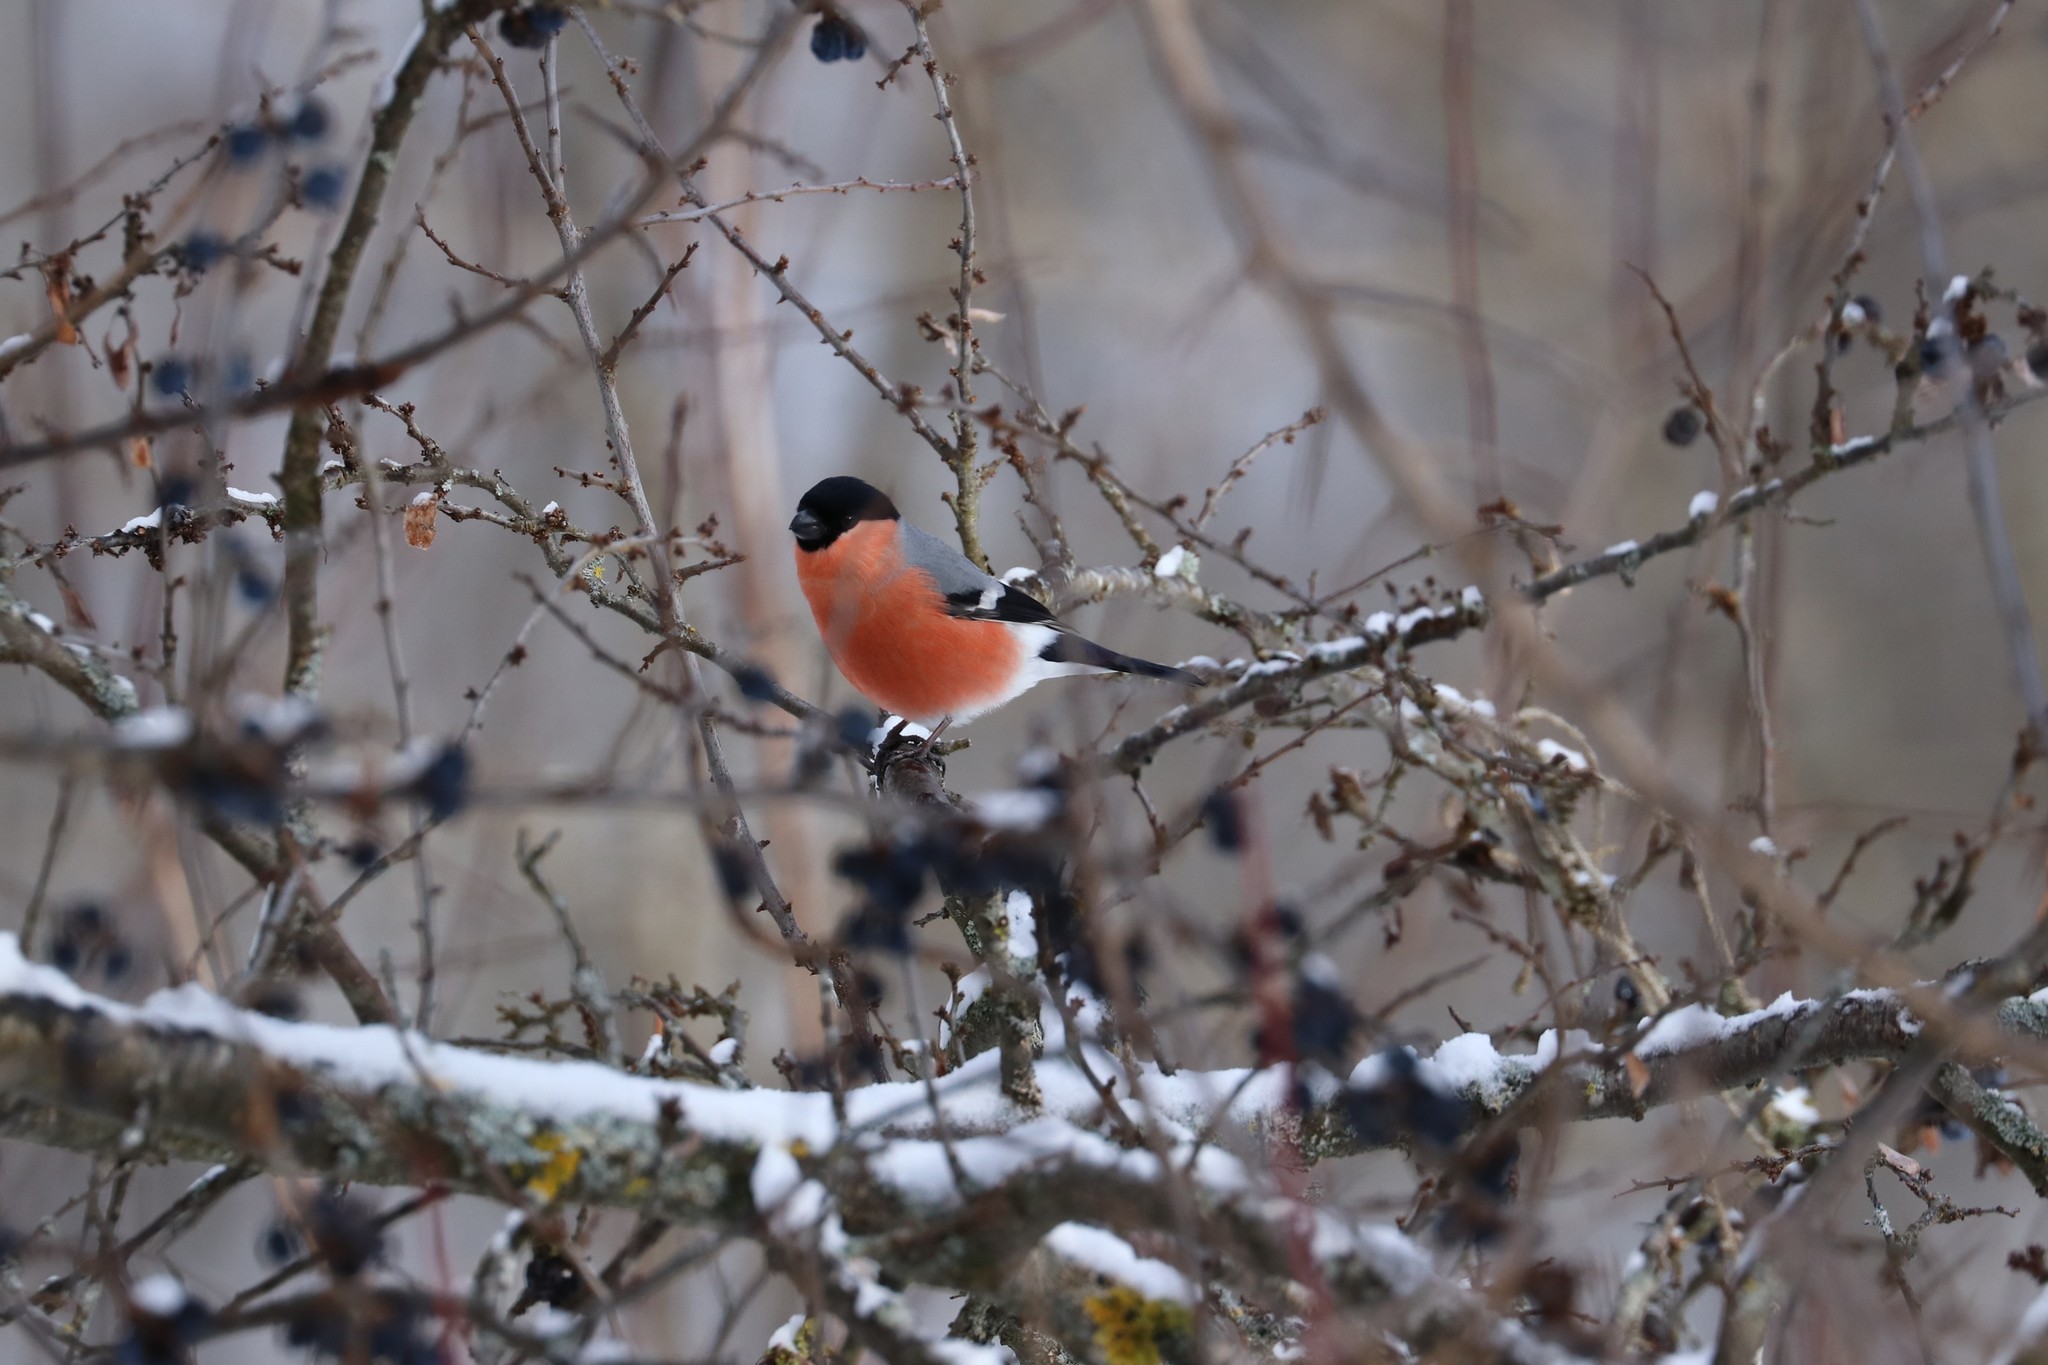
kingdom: Animalia
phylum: Chordata
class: Aves
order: Passeriformes
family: Fringillidae
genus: Pyrrhula
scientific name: Pyrrhula pyrrhula
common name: Eurasian bullfinch
